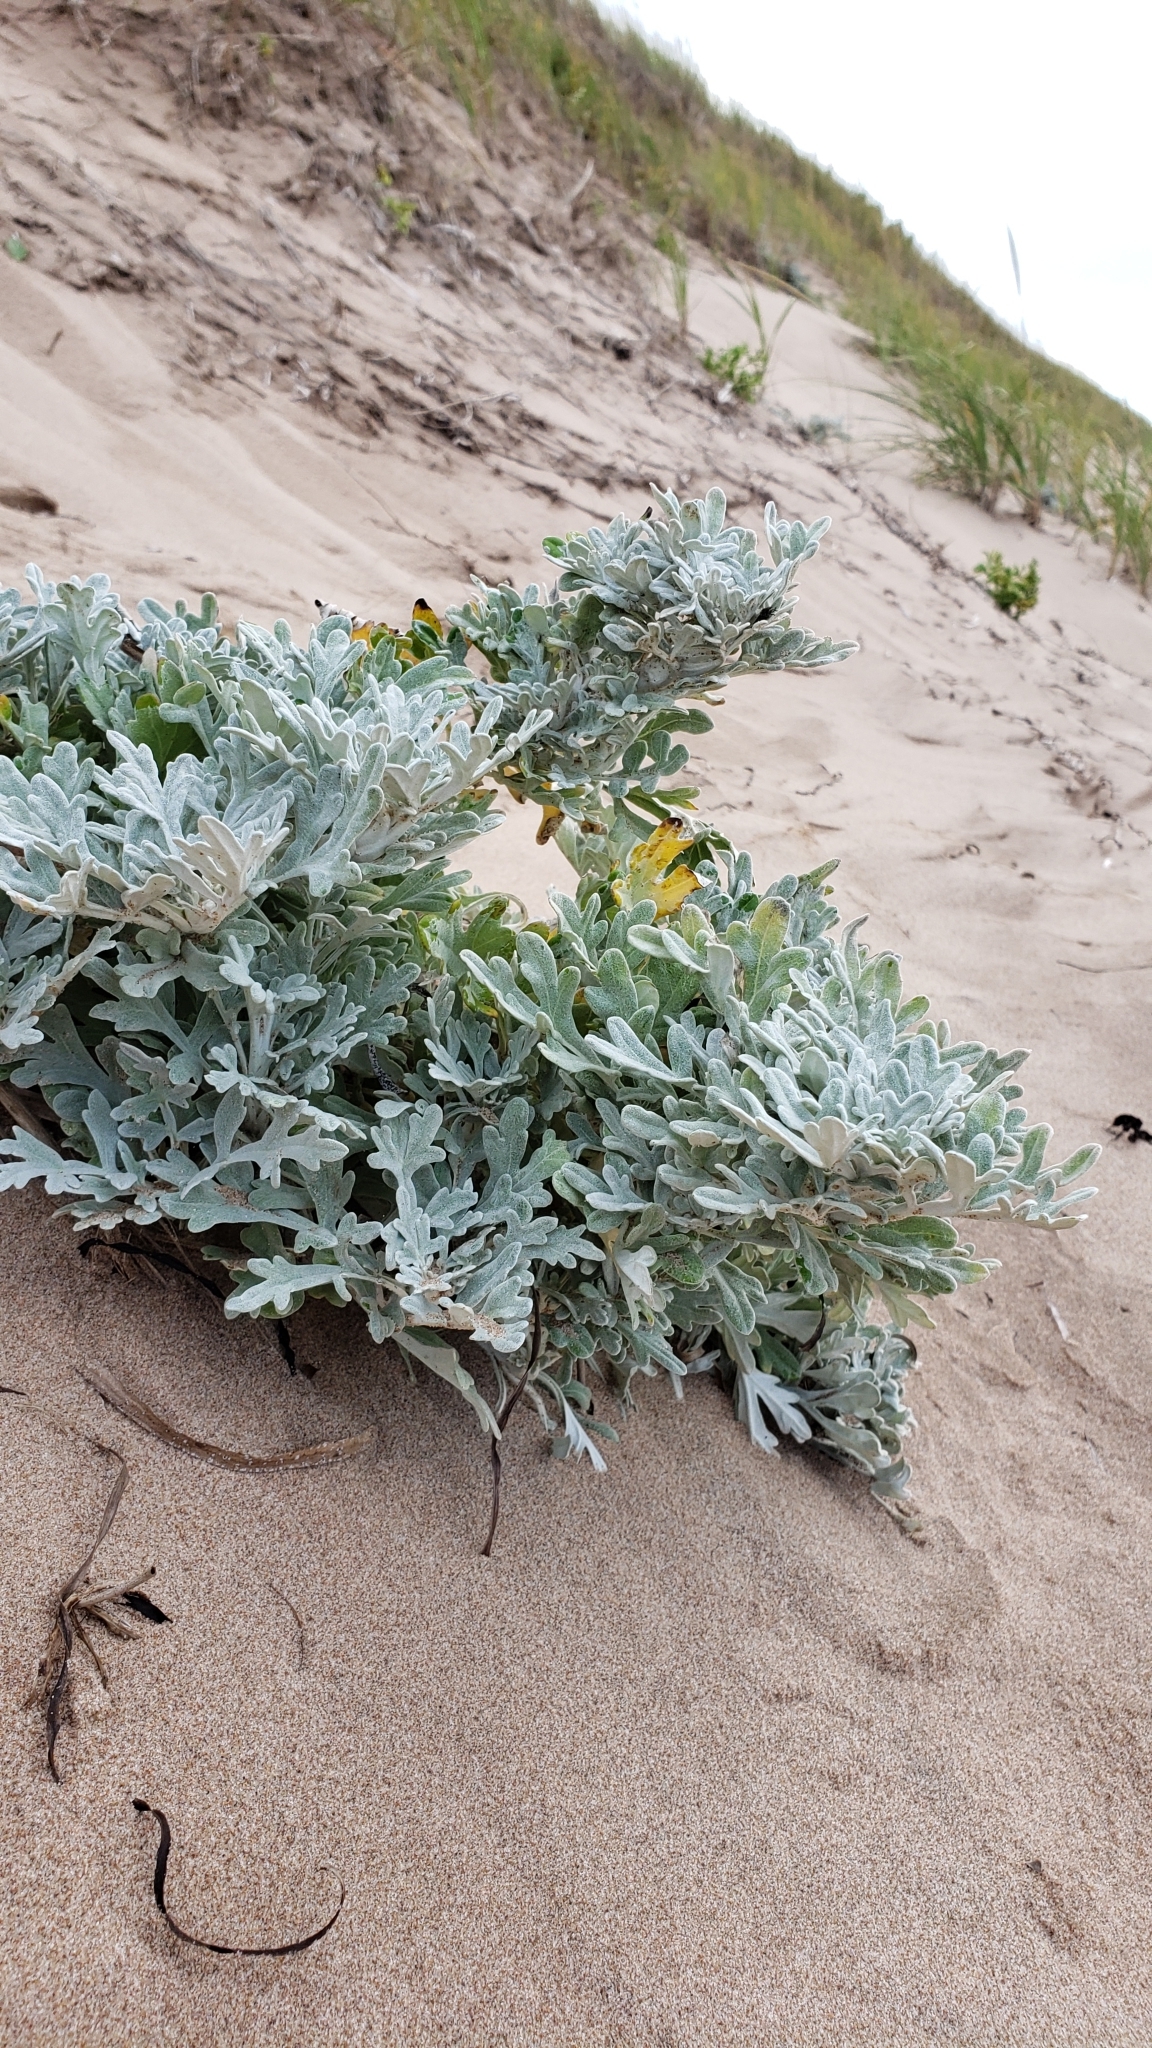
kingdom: Plantae
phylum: Tracheophyta
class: Magnoliopsida
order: Asterales
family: Asteraceae
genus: Artemisia
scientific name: Artemisia stelleriana
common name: Beach wormwood
